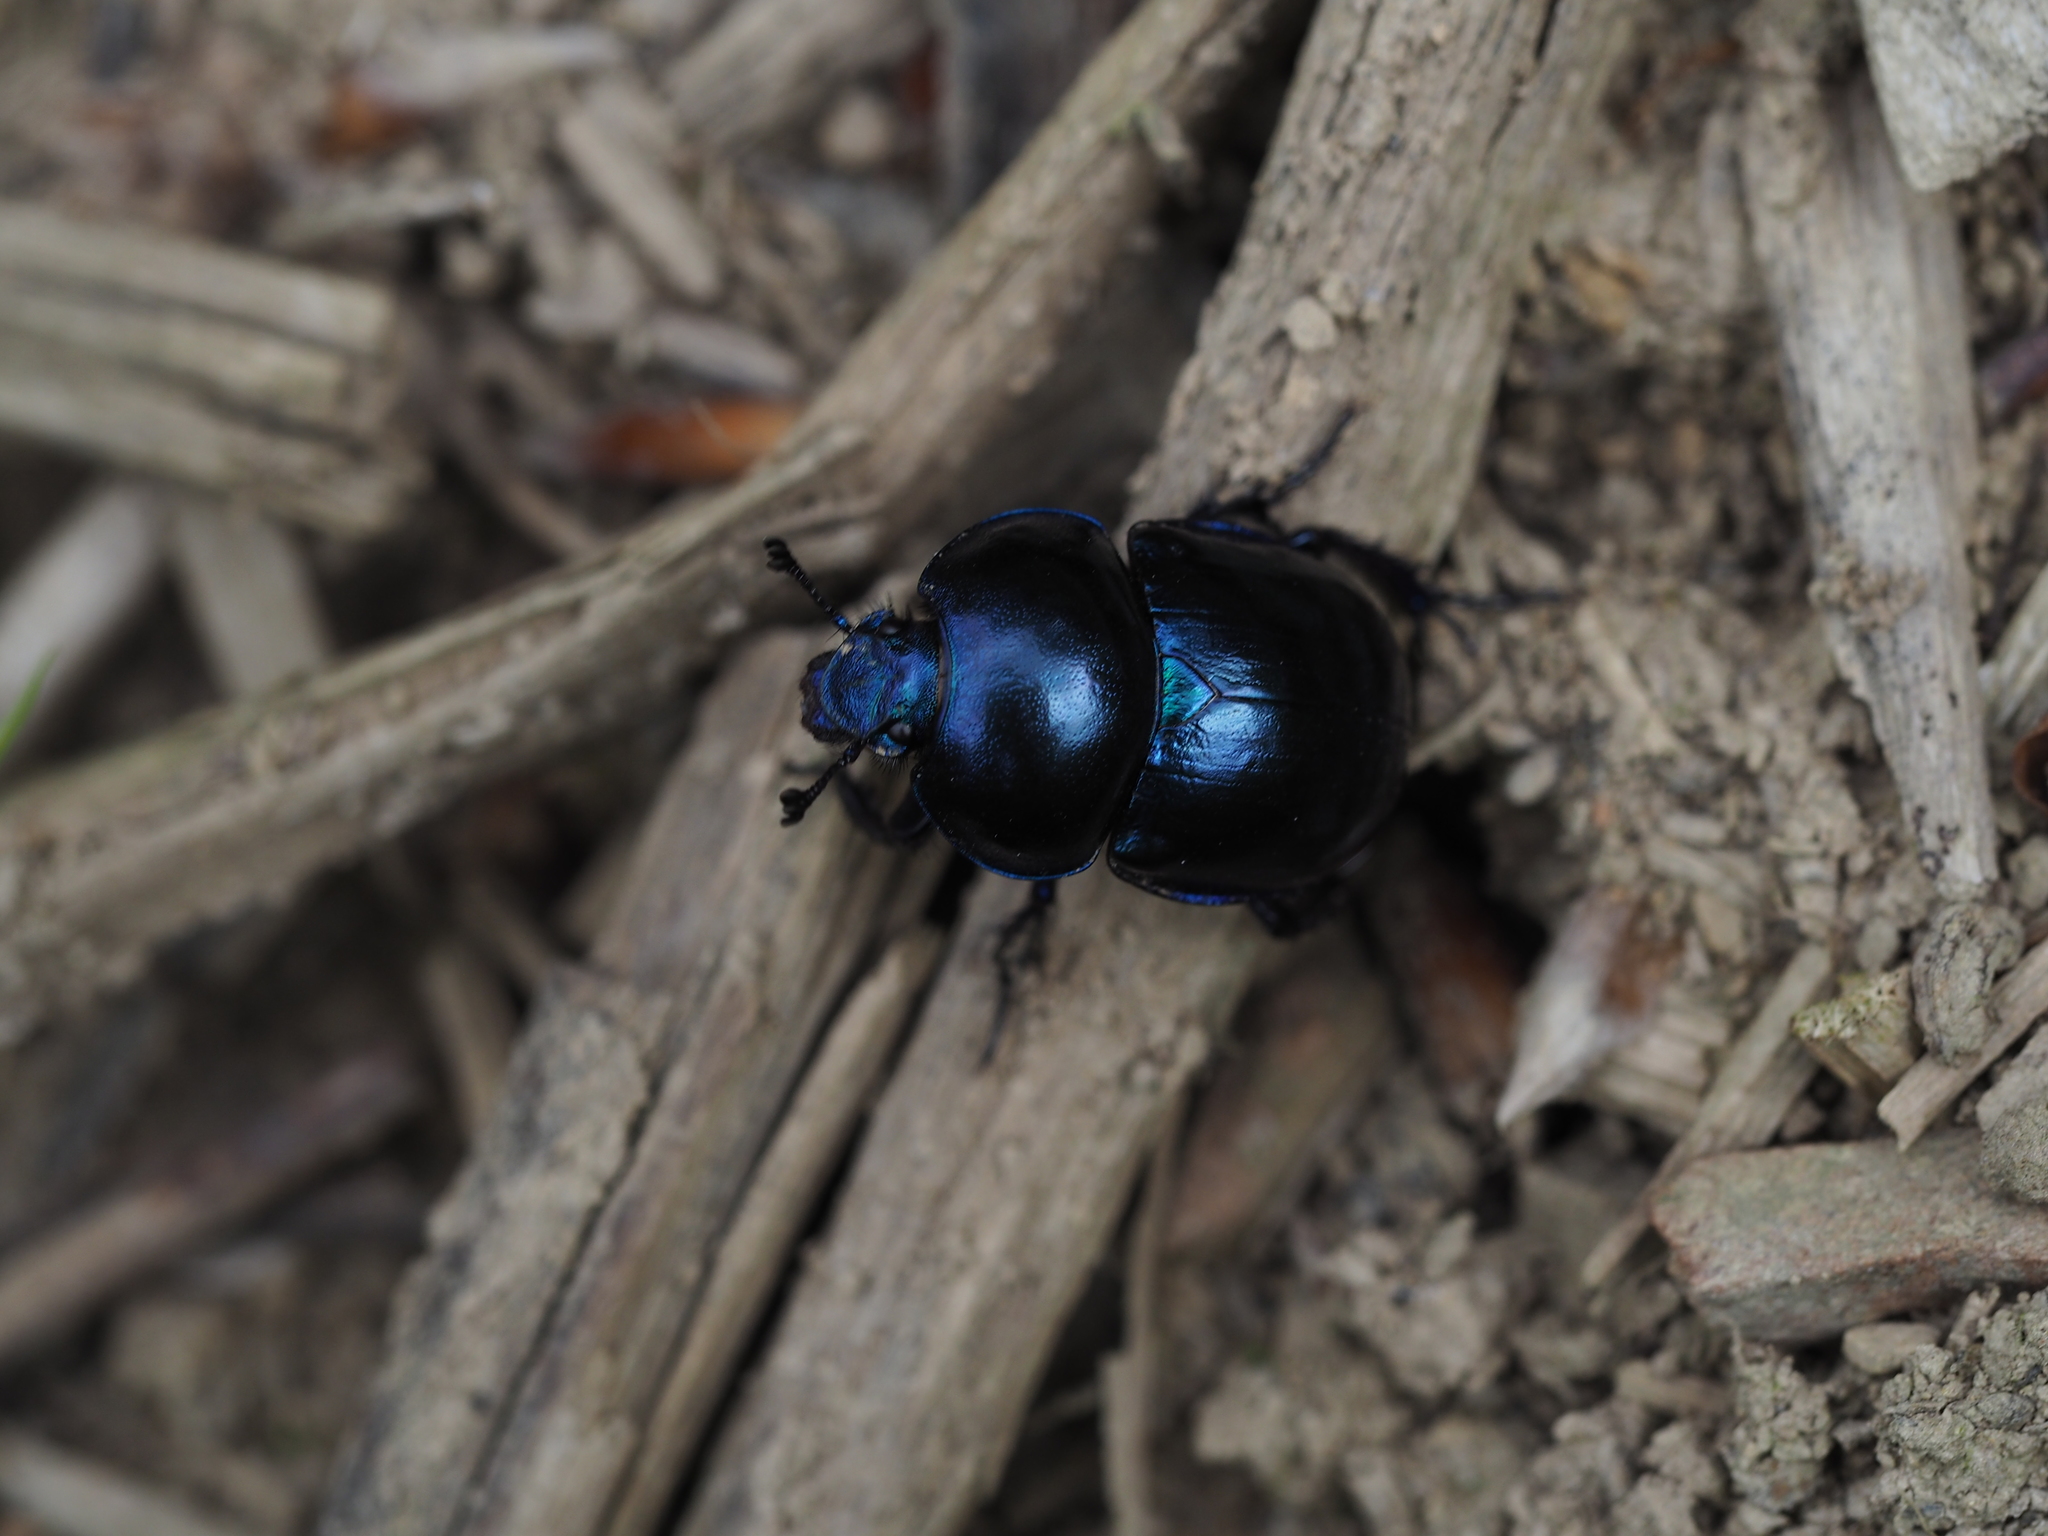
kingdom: Animalia
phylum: Arthropoda
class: Insecta
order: Coleoptera
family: Geotrupidae
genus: Trypocopris
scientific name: Trypocopris vernalis
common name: Spring dumbledor
